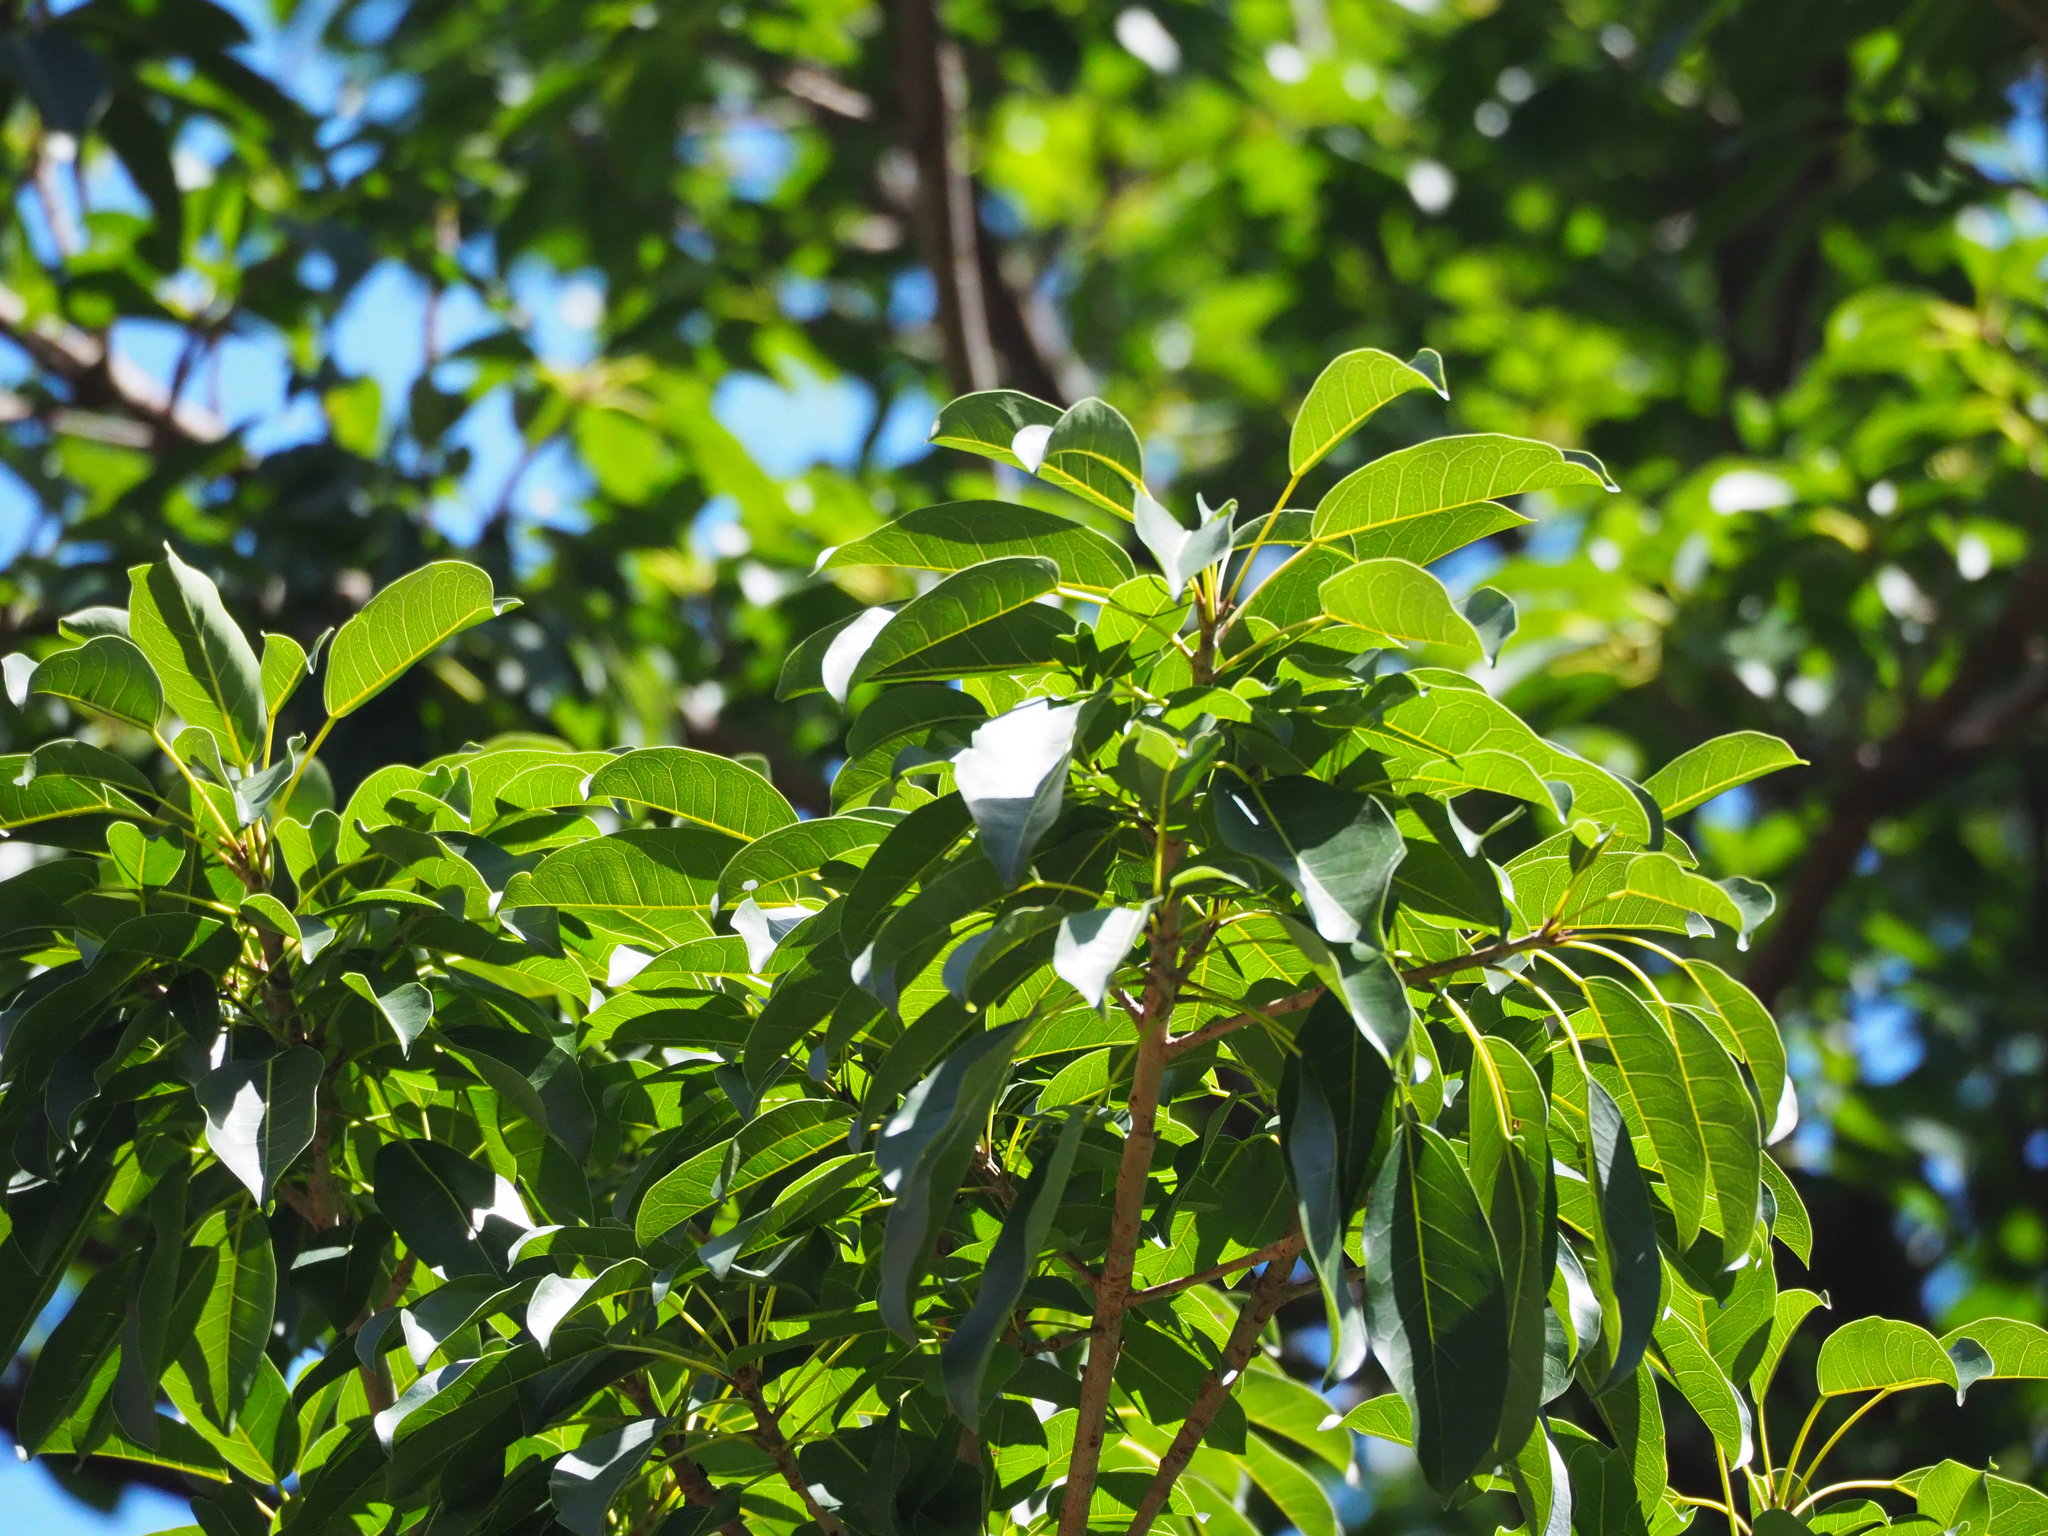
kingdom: Plantae
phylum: Tracheophyta
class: Magnoliopsida
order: Rosales
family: Moraceae
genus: Ficus
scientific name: Ficus subpisocarpa
